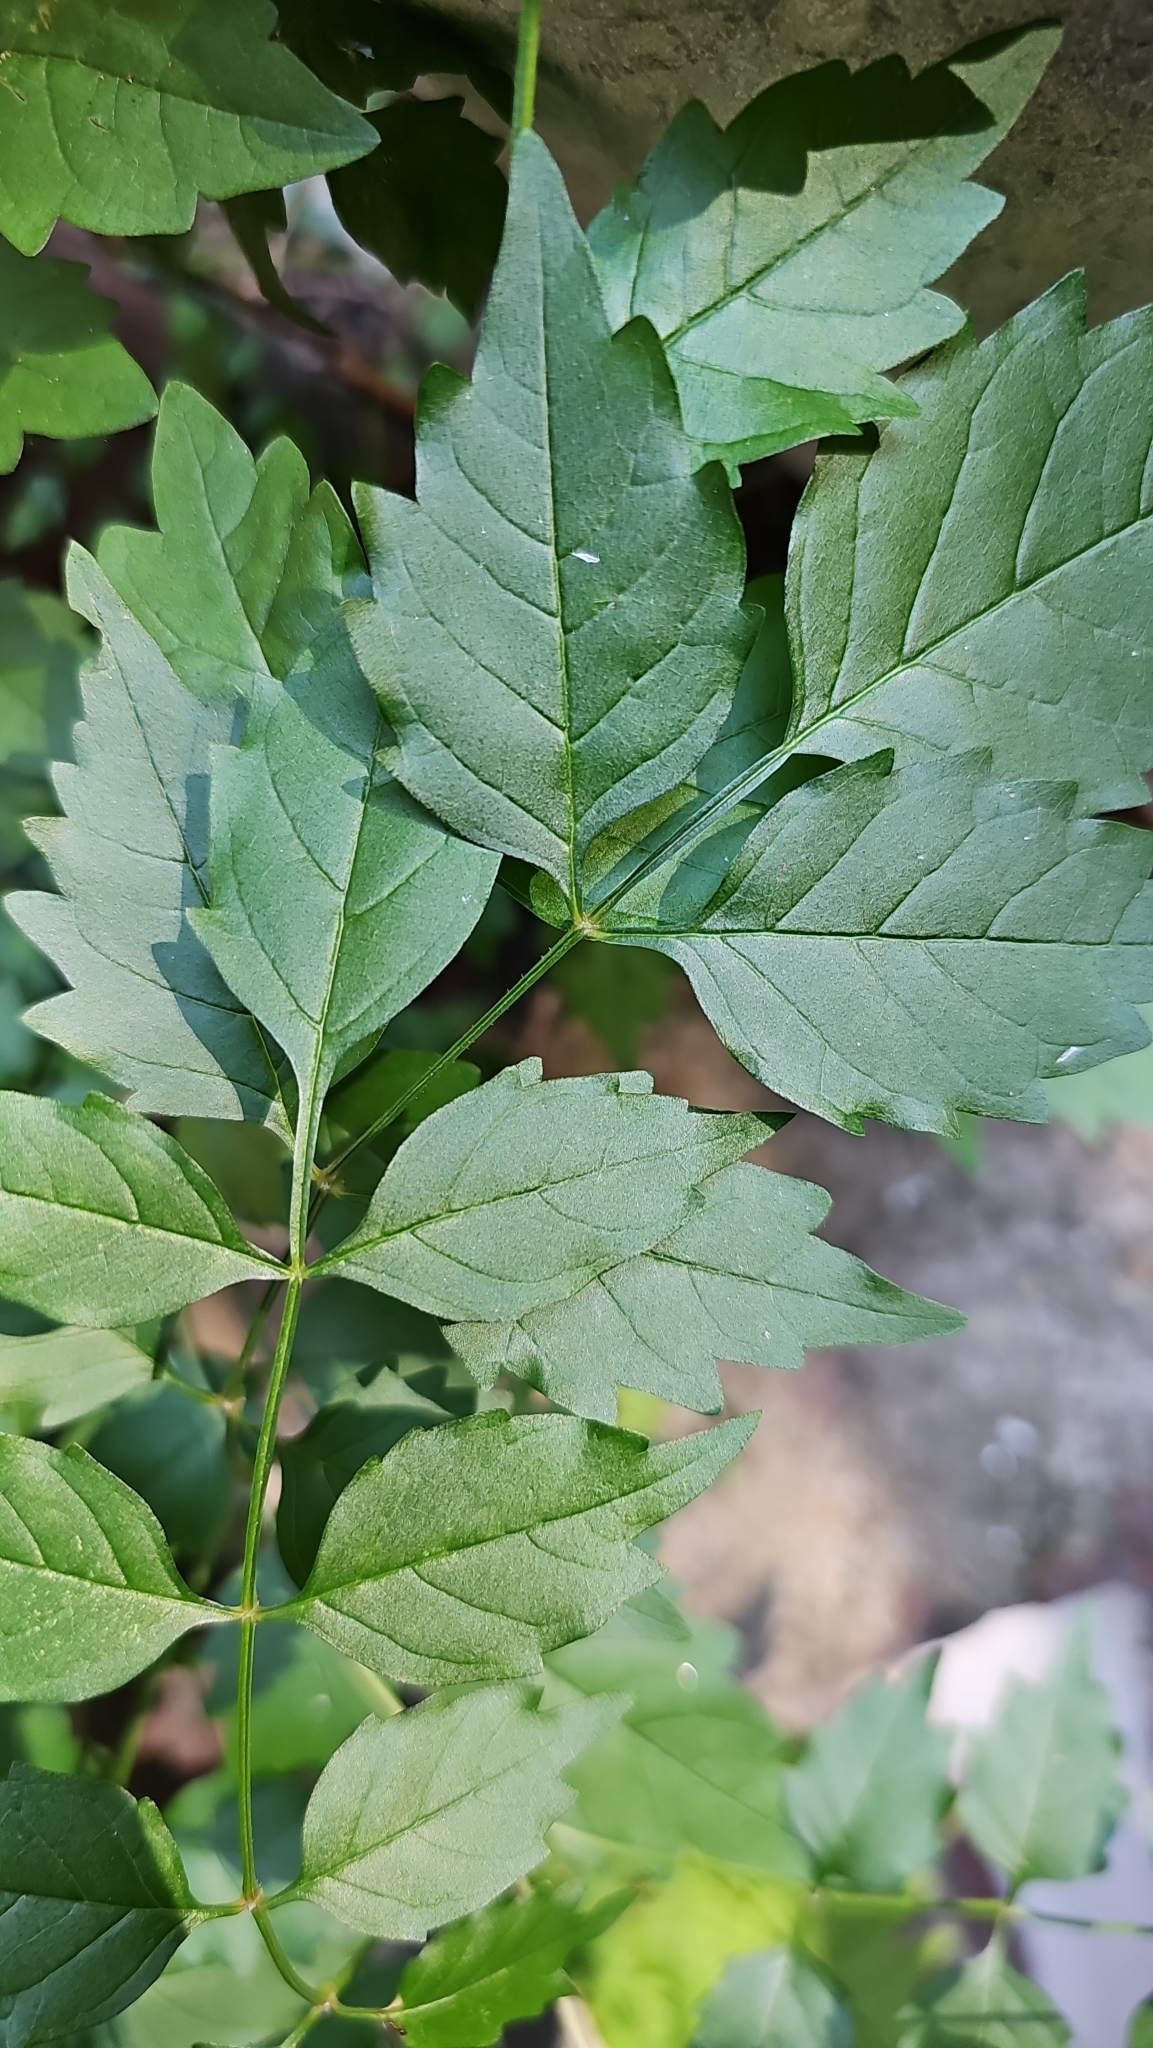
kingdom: Plantae
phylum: Tracheophyta
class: Magnoliopsida
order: Lamiales
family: Bignoniaceae
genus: Campsis
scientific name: Campsis radicans
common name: Trumpet-creeper
